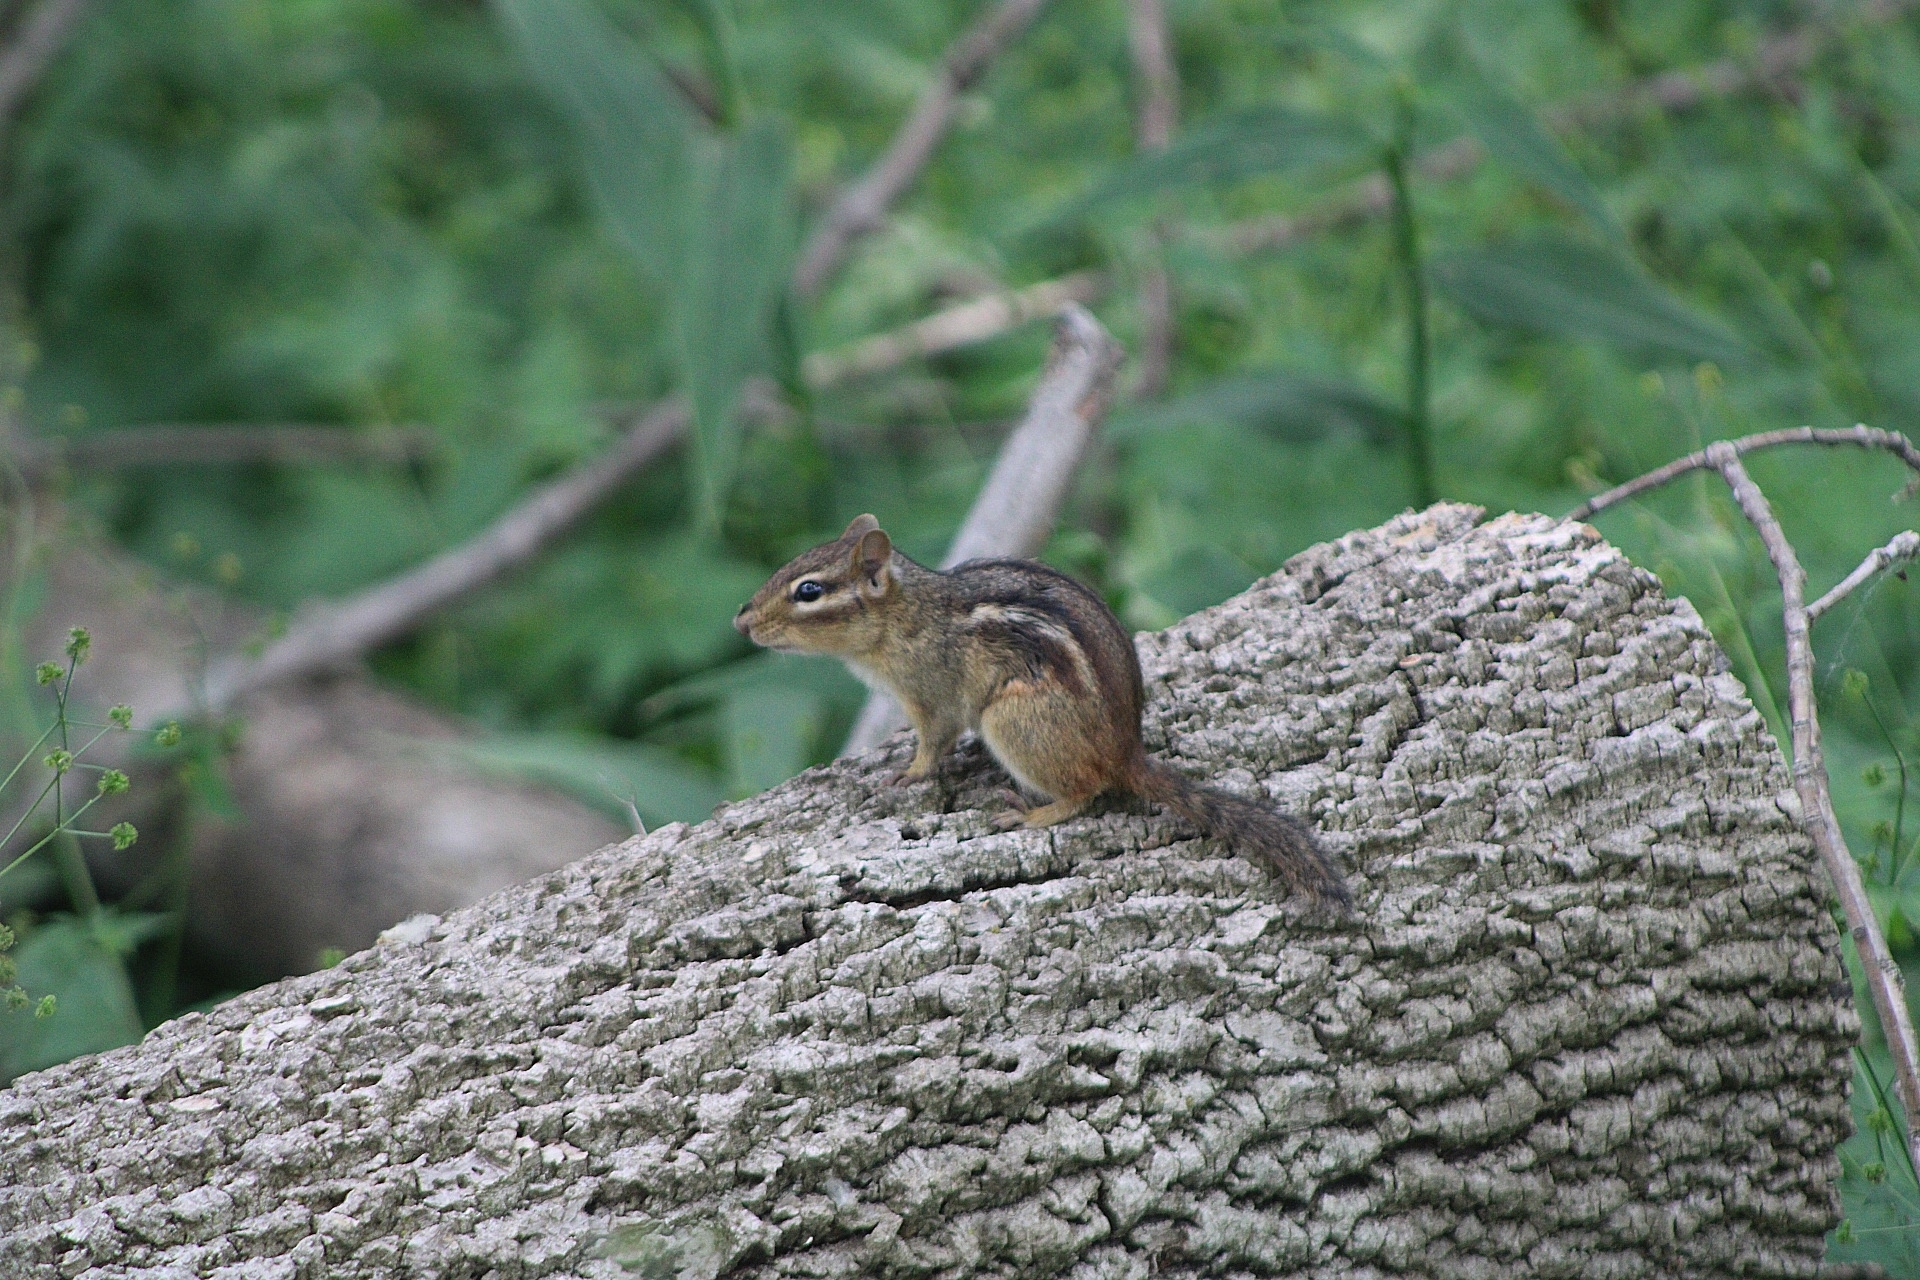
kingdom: Animalia
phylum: Chordata
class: Mammalia
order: Rodentia
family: Sciuridae
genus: Tamias
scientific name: Tamias striatus
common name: Eastern chipmunk
